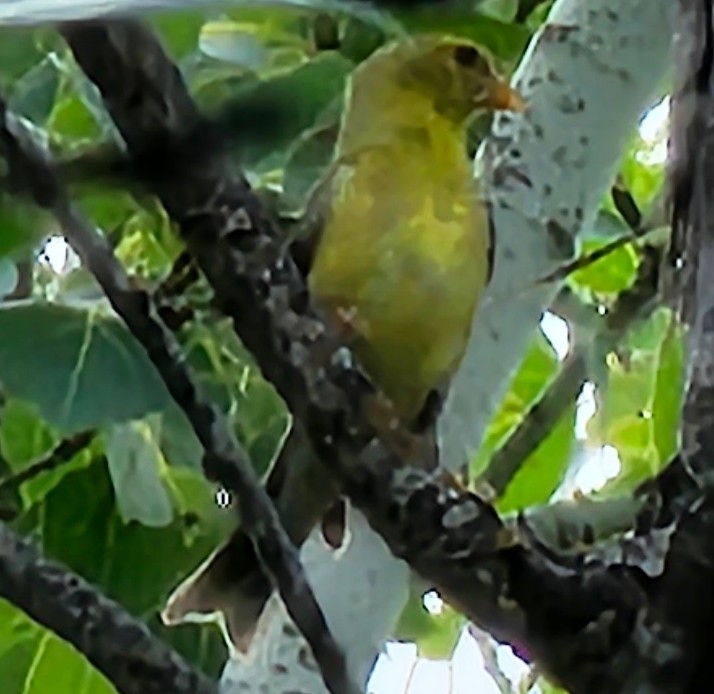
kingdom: Animalia
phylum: Chordata
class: Aves
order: Passeriformes
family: Fringillidae
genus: Spinus
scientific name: Spinus tristis
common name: American goldfinch
